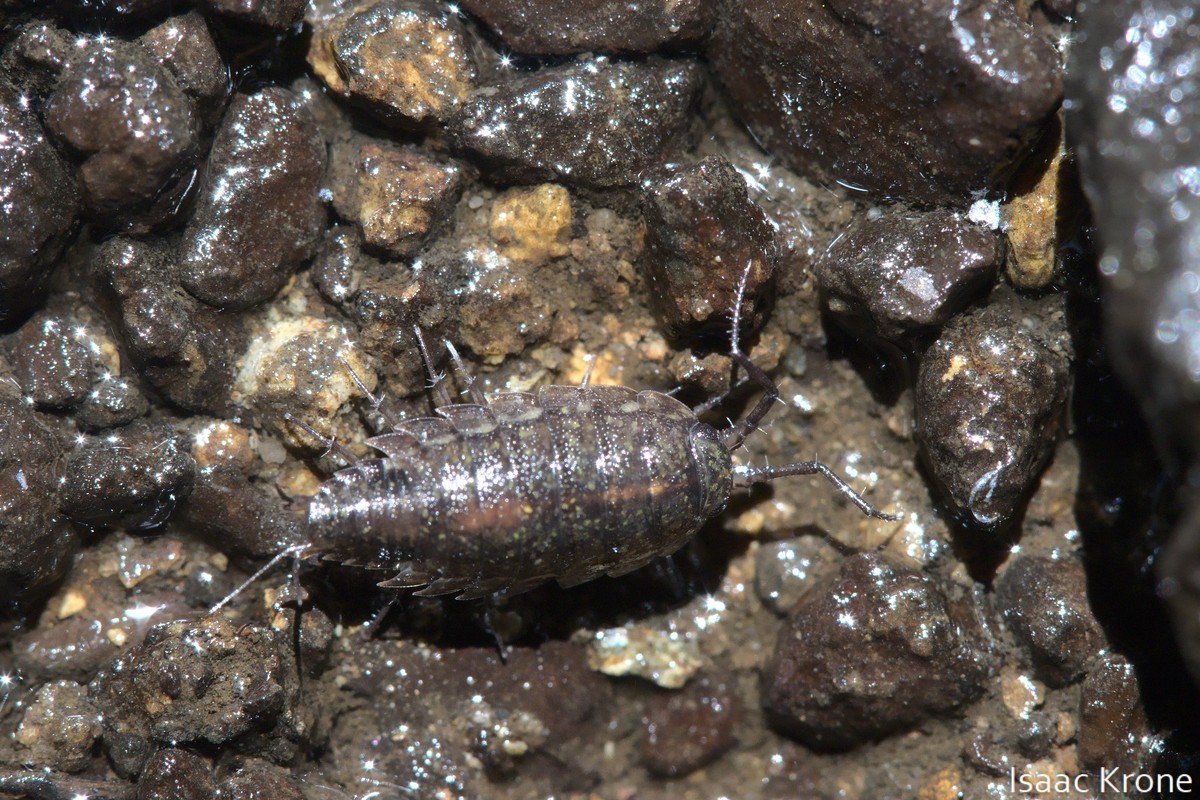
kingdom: Animalia
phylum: Arthropoda
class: Malacostraca
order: Isopoda
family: Ligiidae
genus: Ligidium
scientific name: Ligidium latum
